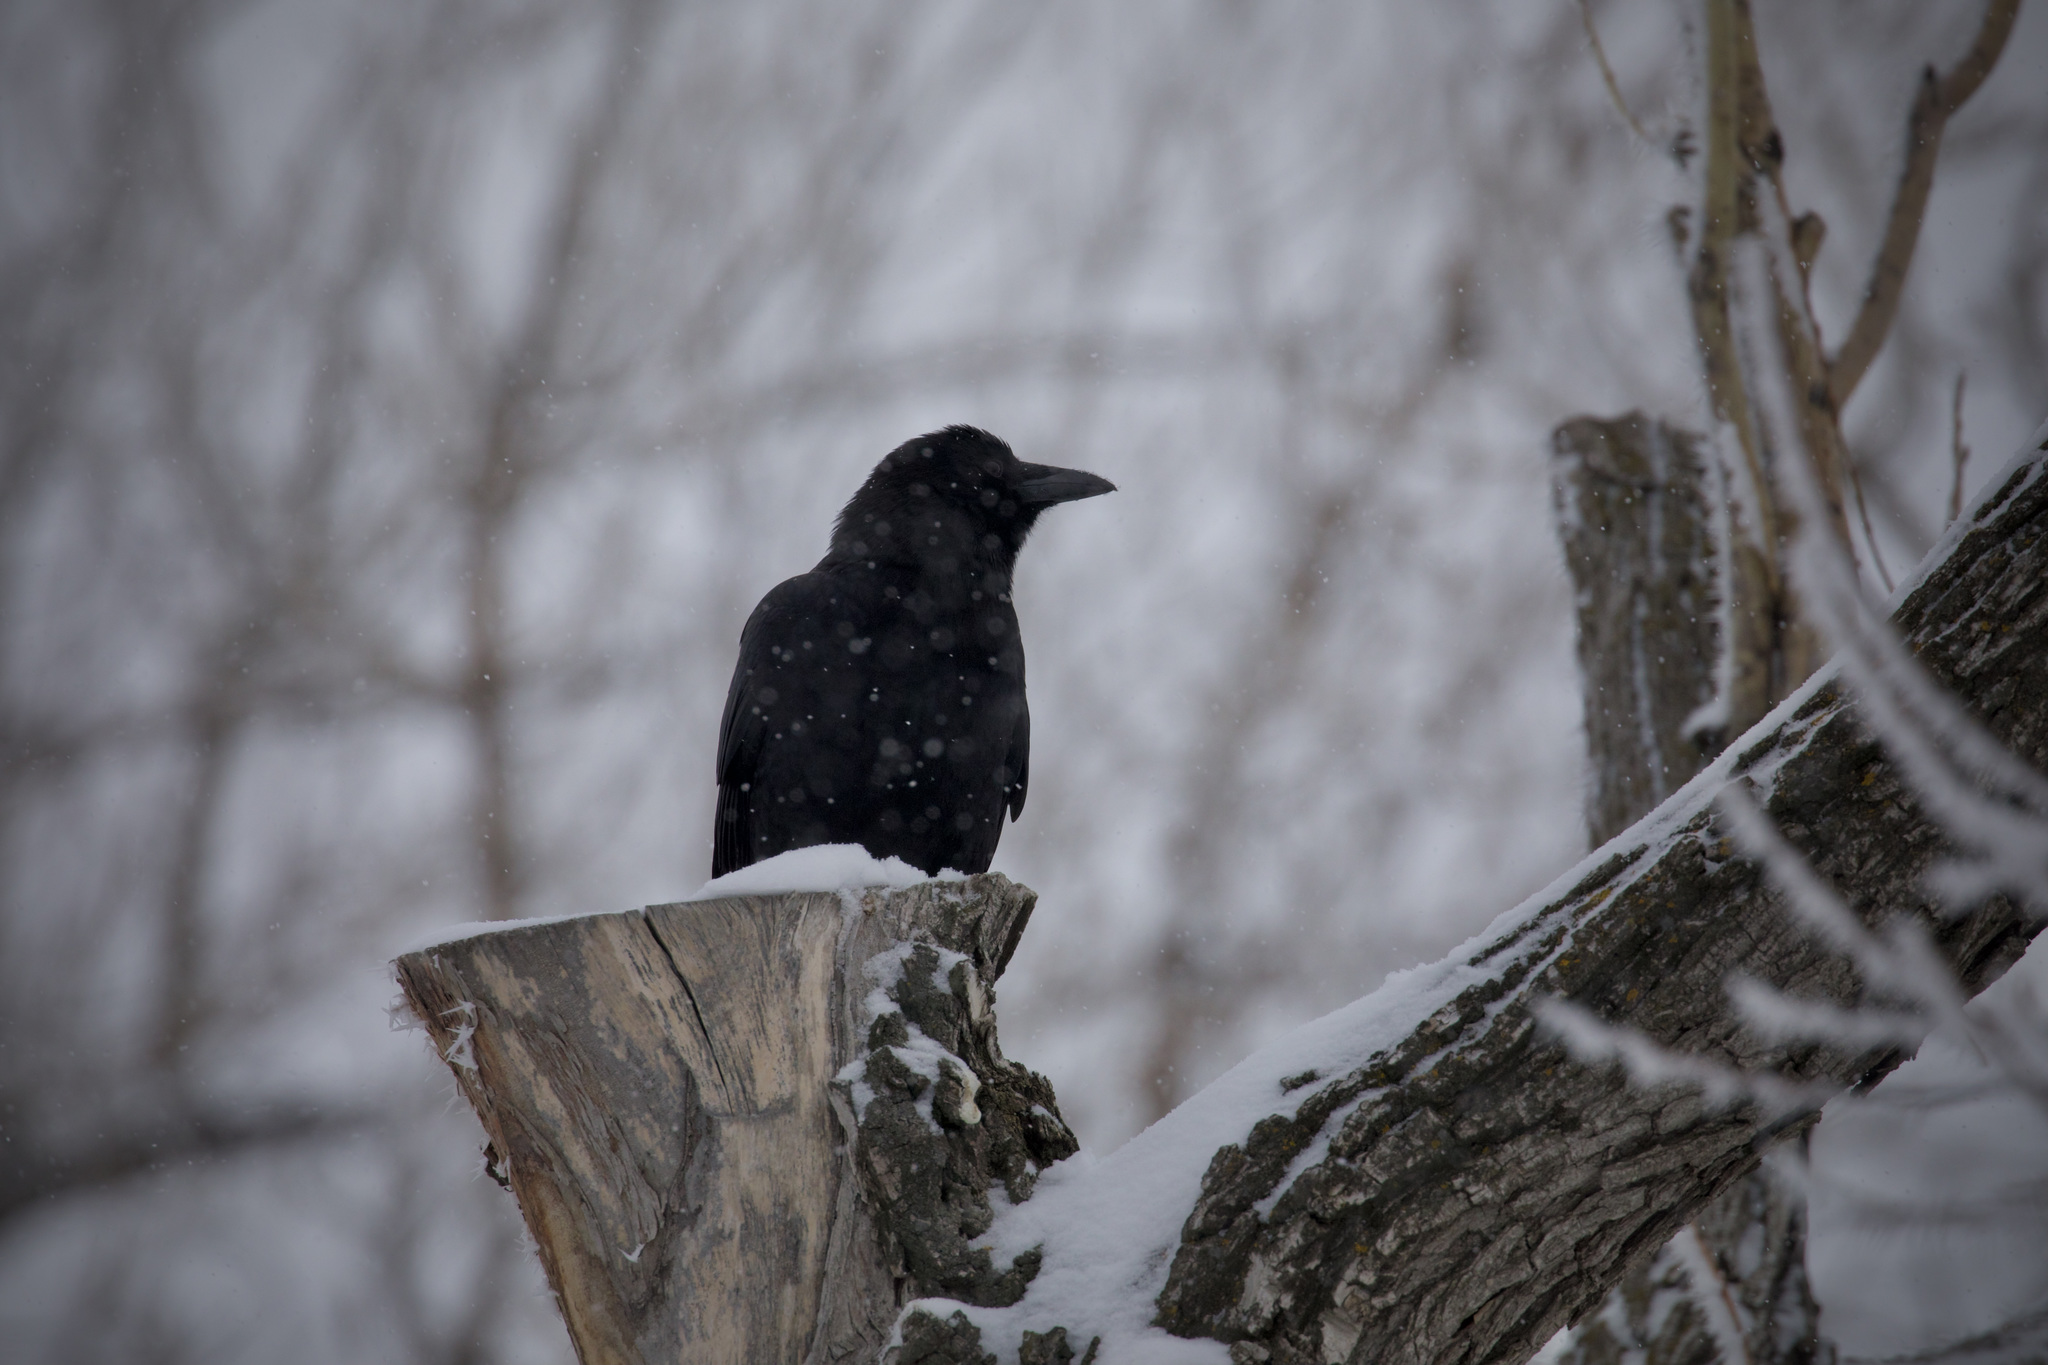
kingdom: Animalia
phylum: Chordata
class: Aves
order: Passeriformes
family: Corvidae
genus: Corvus
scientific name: Corvus brachyrhynchos
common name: American crow
